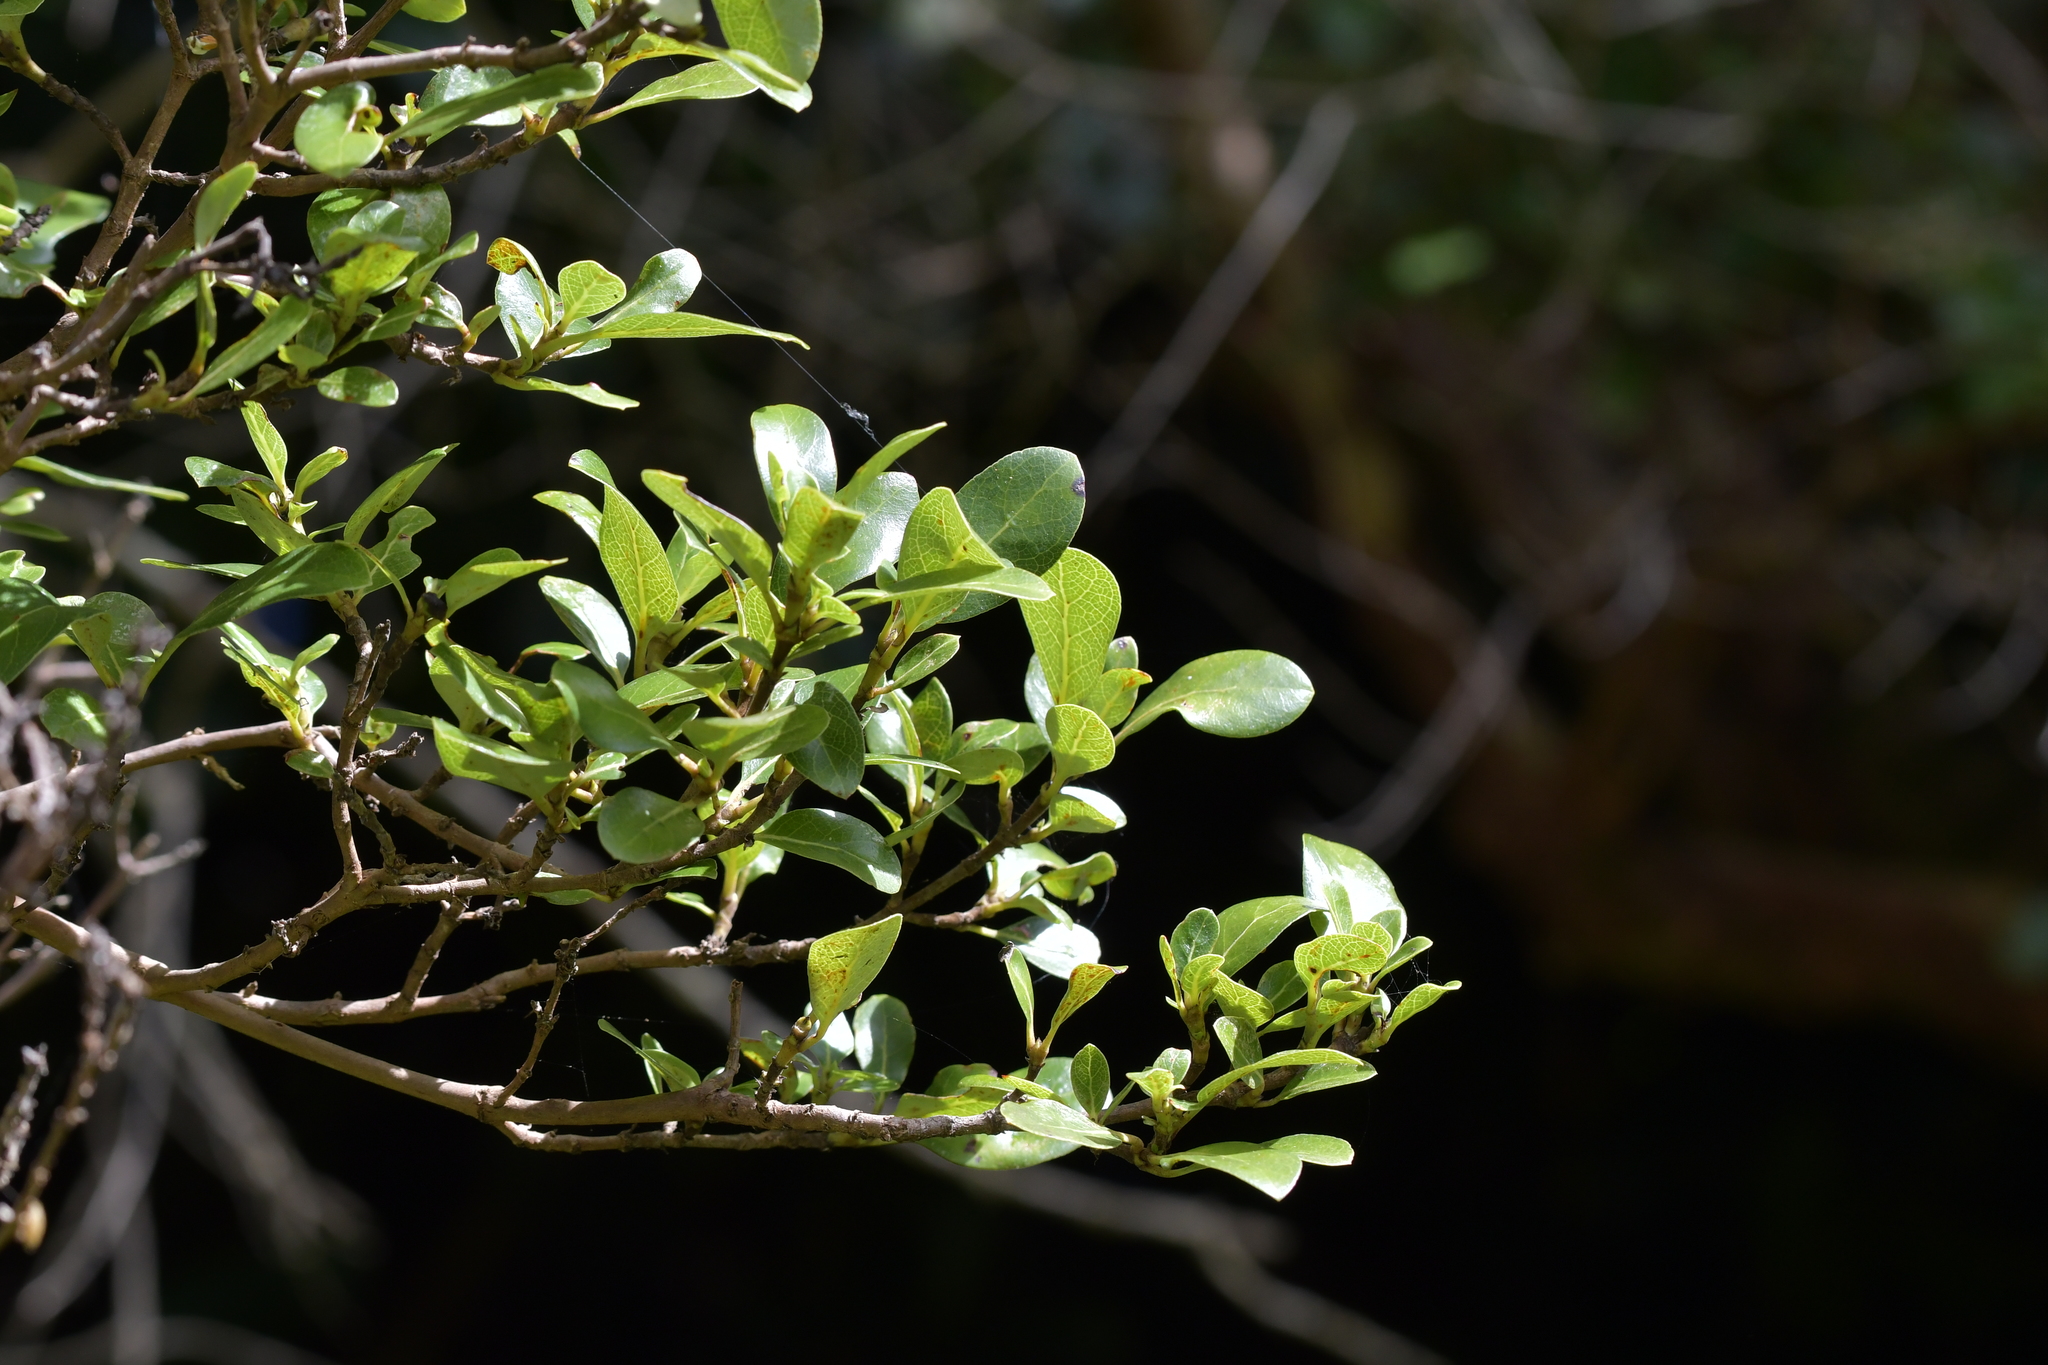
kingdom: Plantae
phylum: Tracheophyta
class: Magnoliopsida
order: Gentianales
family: Rubiaceae
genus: Coprosma
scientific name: Coprosma chathamica
